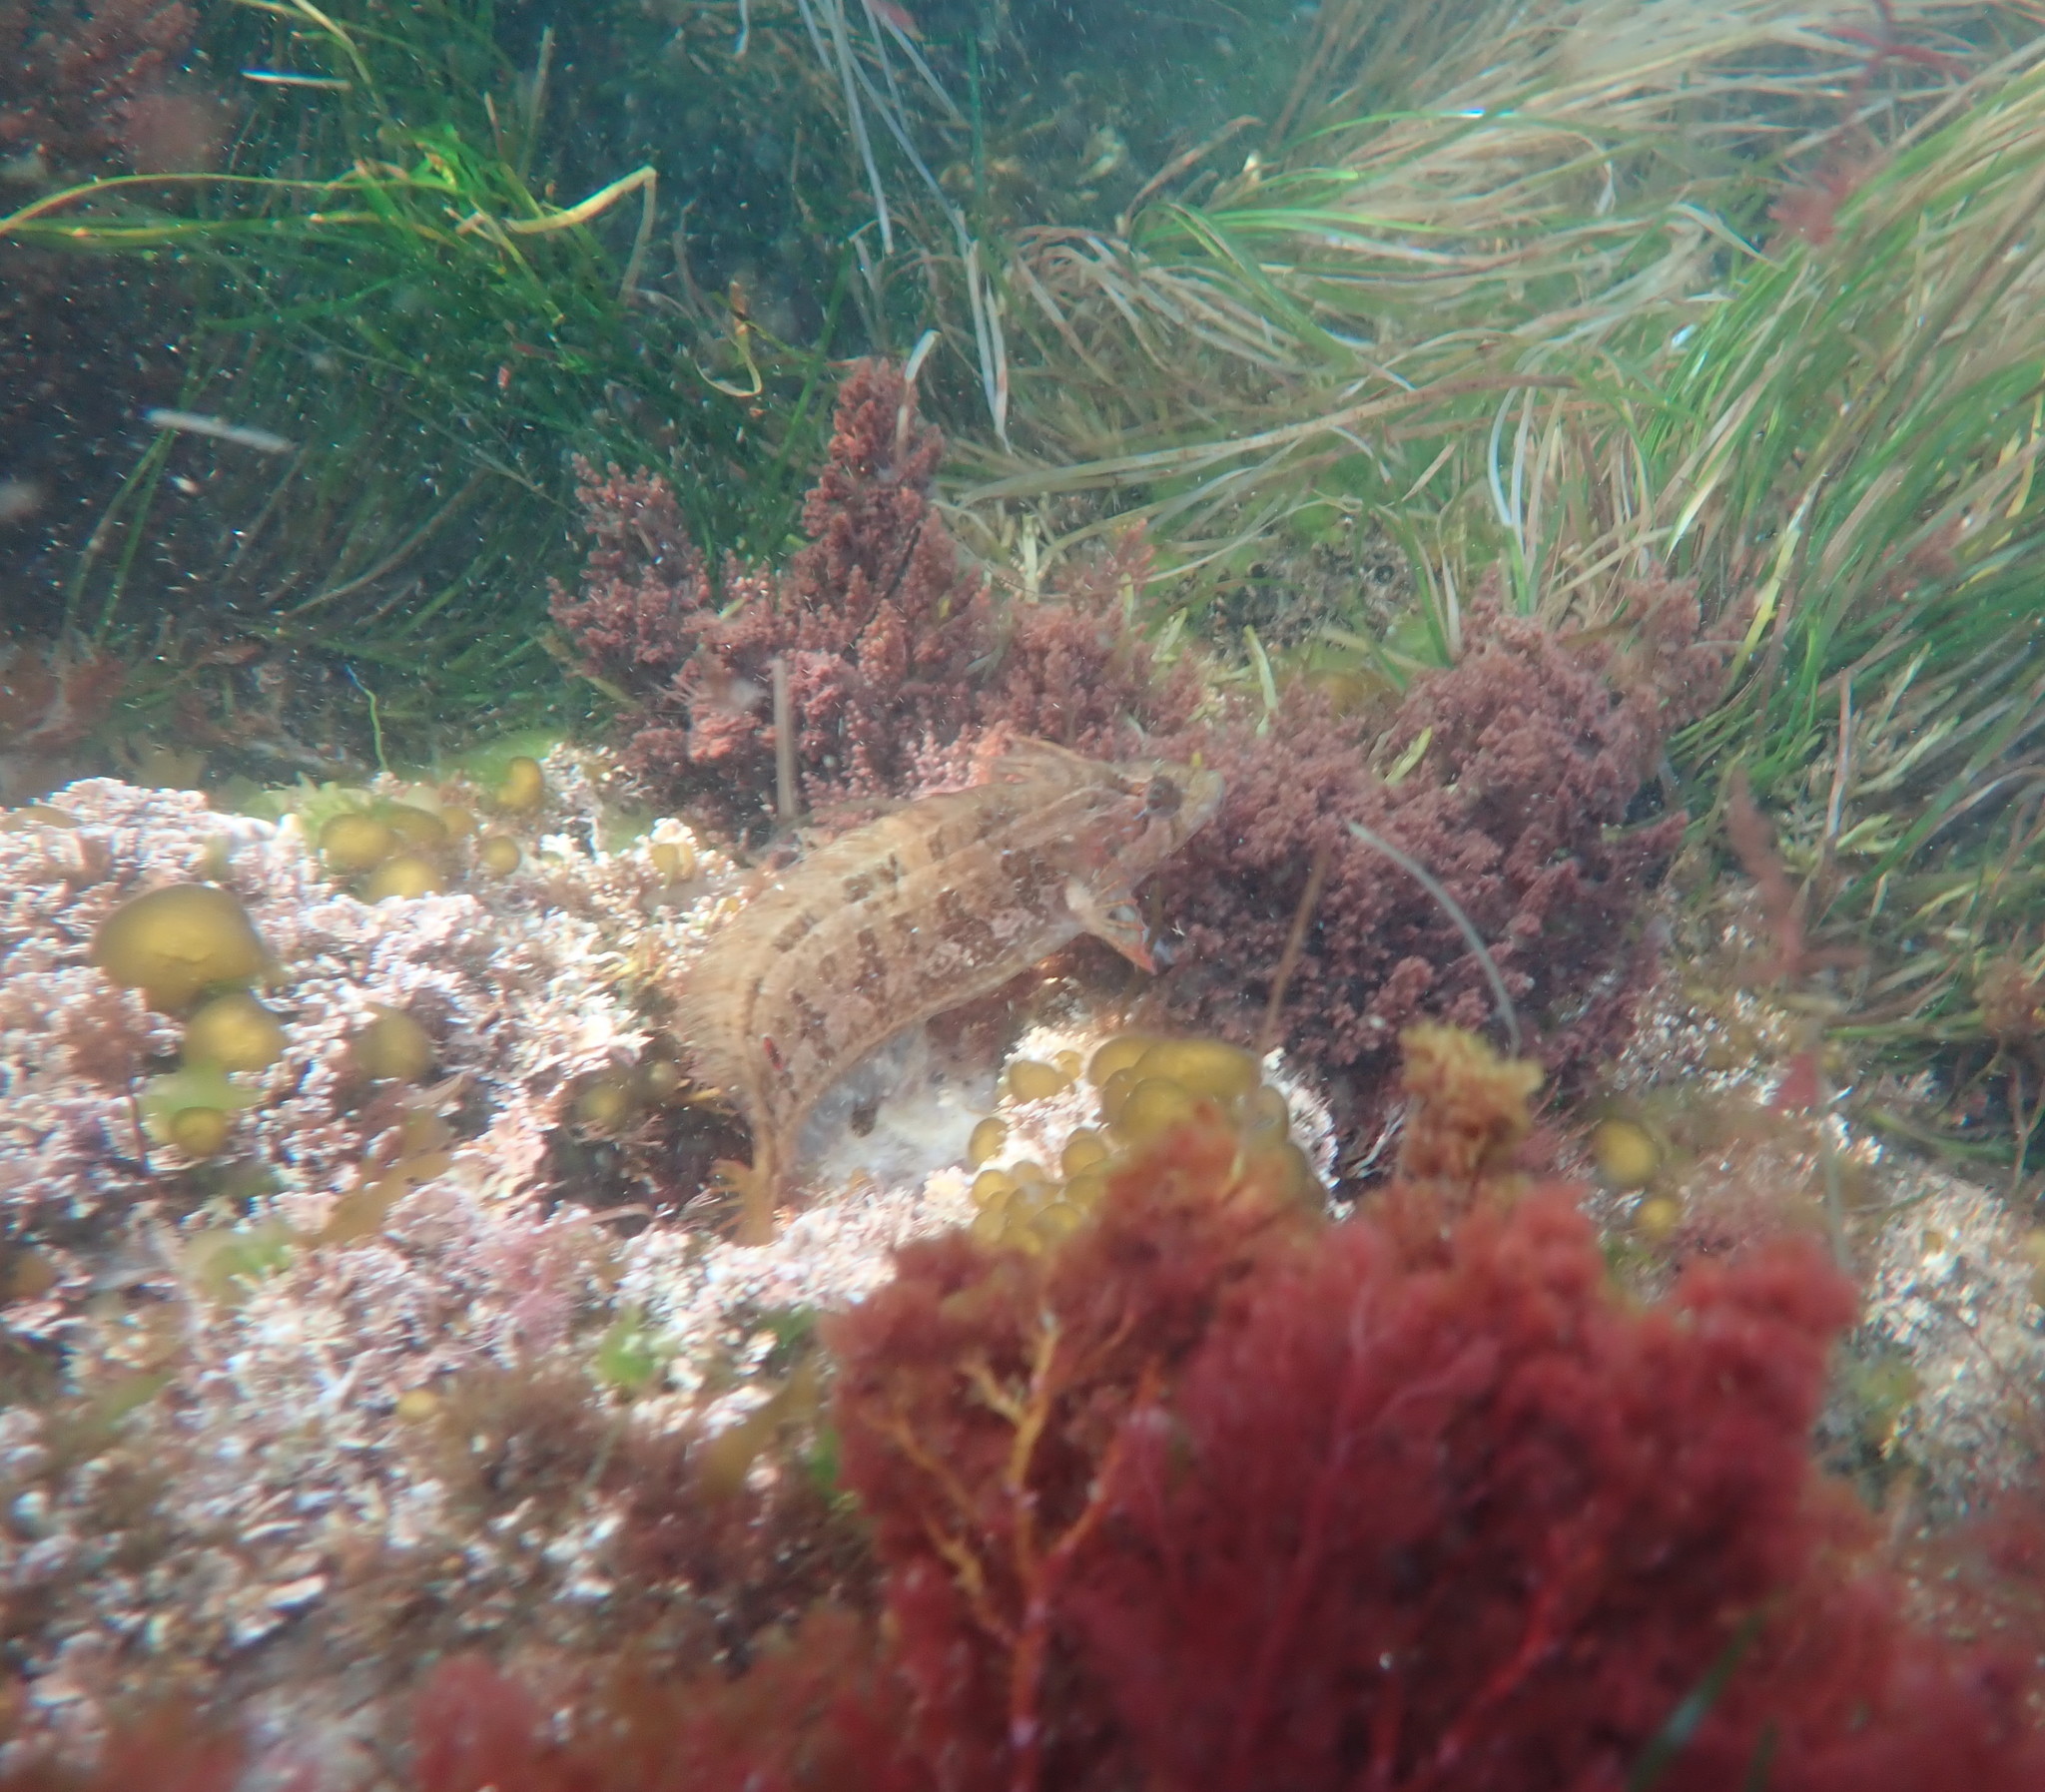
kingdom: Animalia
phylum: Chordata
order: Perciformes
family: Clinidae
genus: Gibbonsia
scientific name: Gibbonsia elegans
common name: Spotted kelpfish
